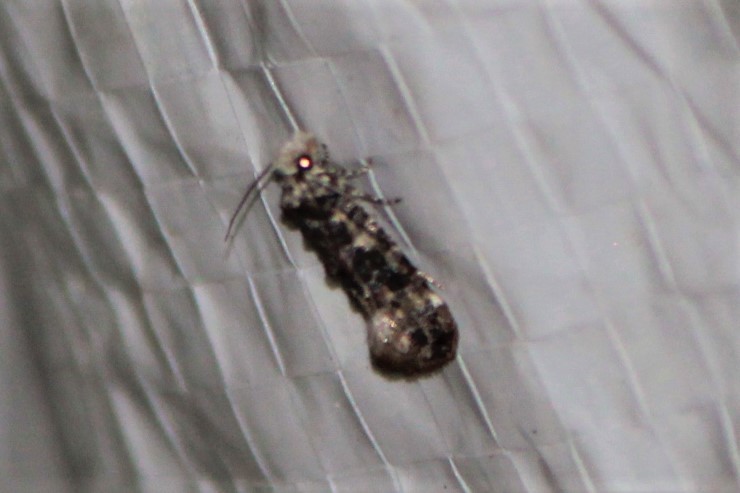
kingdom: Animalia
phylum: Arthropoda
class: Insecta
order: Lepidoptera
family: Tineidae
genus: Xylesthia
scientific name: Xylesthia pruniramiella
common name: Clemens' bark moth
